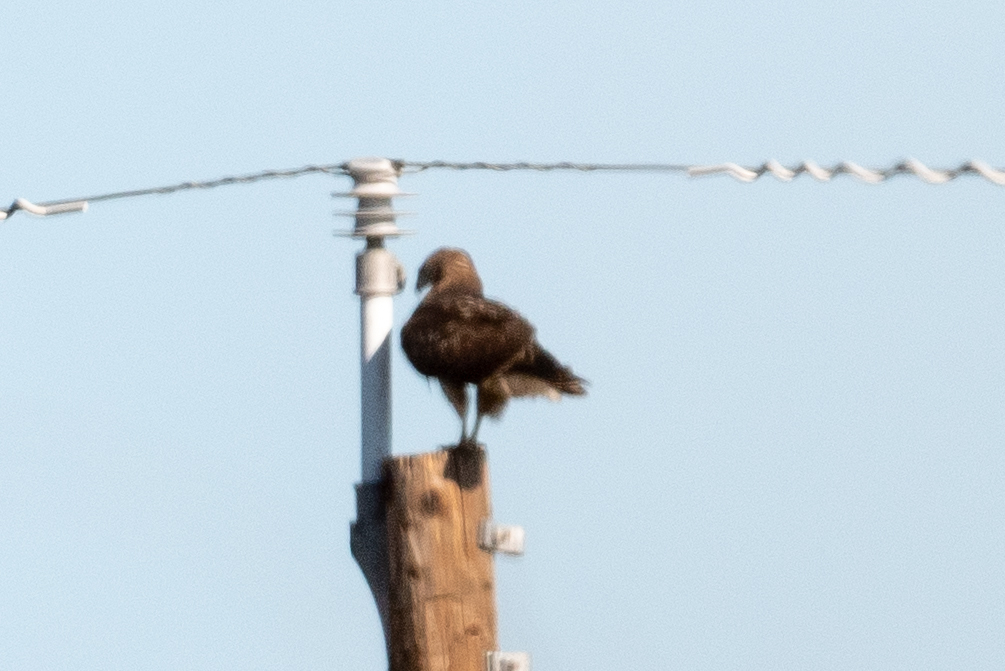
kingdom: Animalia
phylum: Chordata
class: Aves
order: Accipitriformes
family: Accipitridae
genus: Buteo
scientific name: Buteo jamaicensis
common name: Red-tailed hawk
